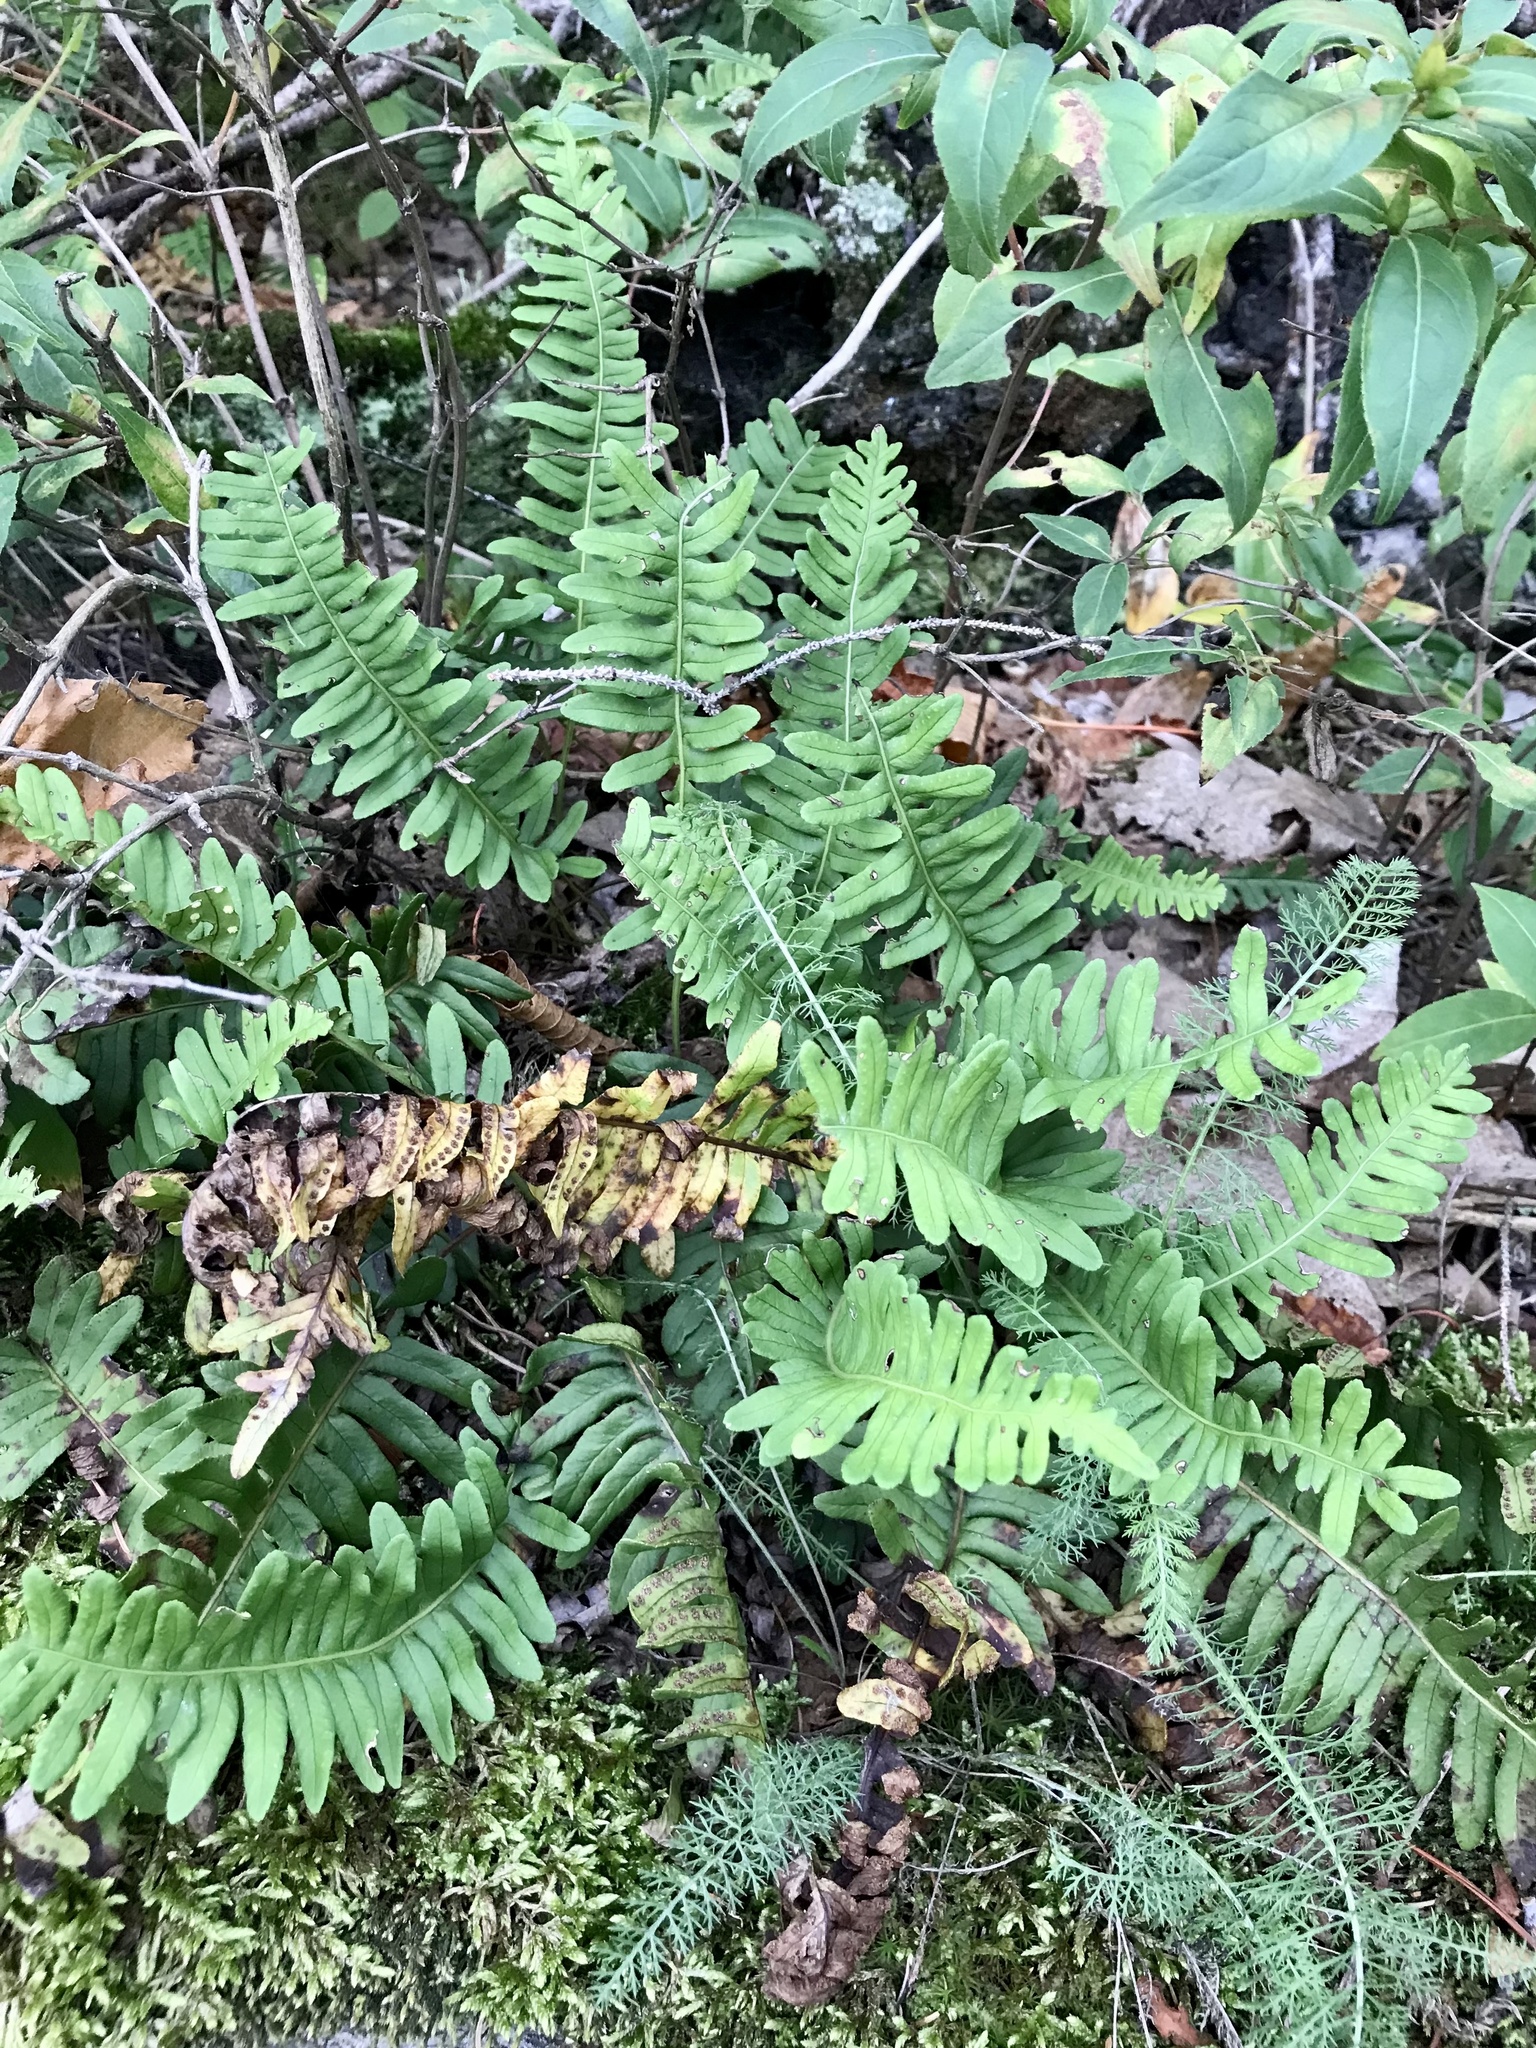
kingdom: Plantae
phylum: Tracheophyta
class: Polypodiopsida
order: Polypodiales
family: Polypodiaceae
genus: Polypodium
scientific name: Polypodium virginianum
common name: American wall fern
